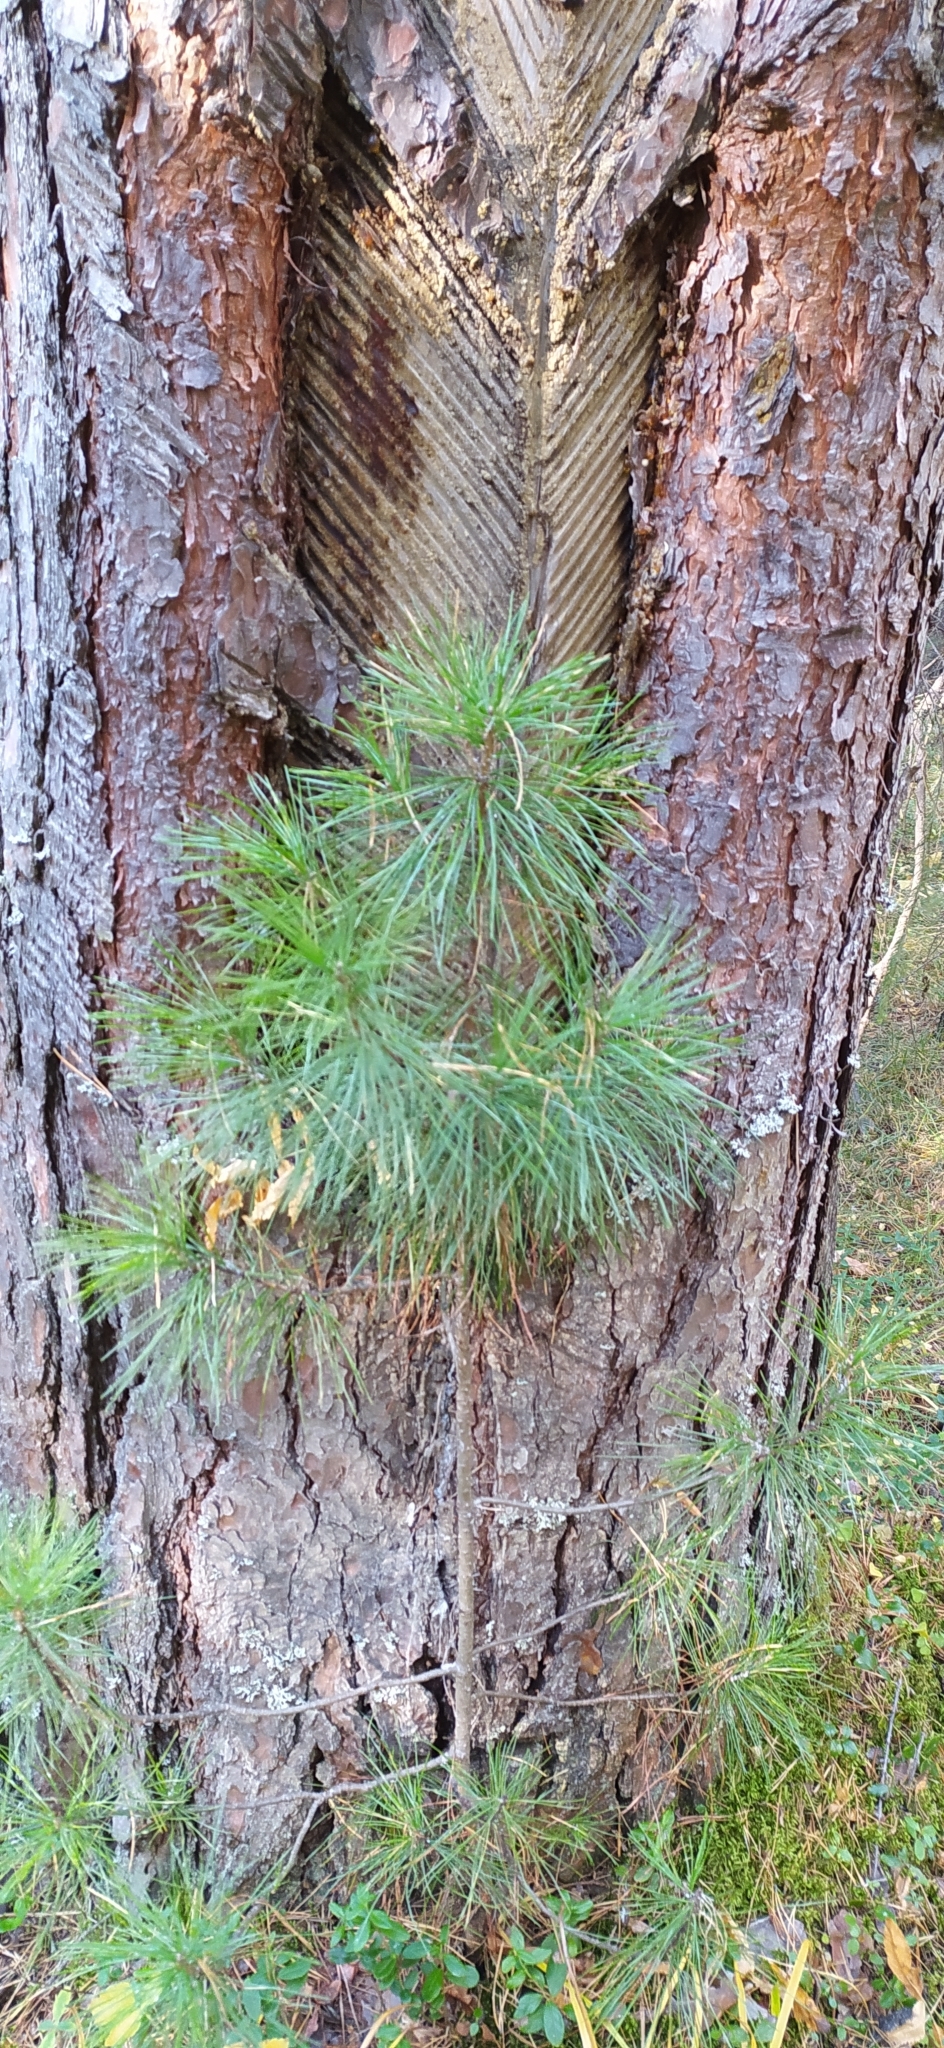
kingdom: Plantae
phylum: Tracheophyta
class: Pinopsida
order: Pinales
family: Pinaceae
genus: Pinus
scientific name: Pinus sibirica
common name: Siberian pine
